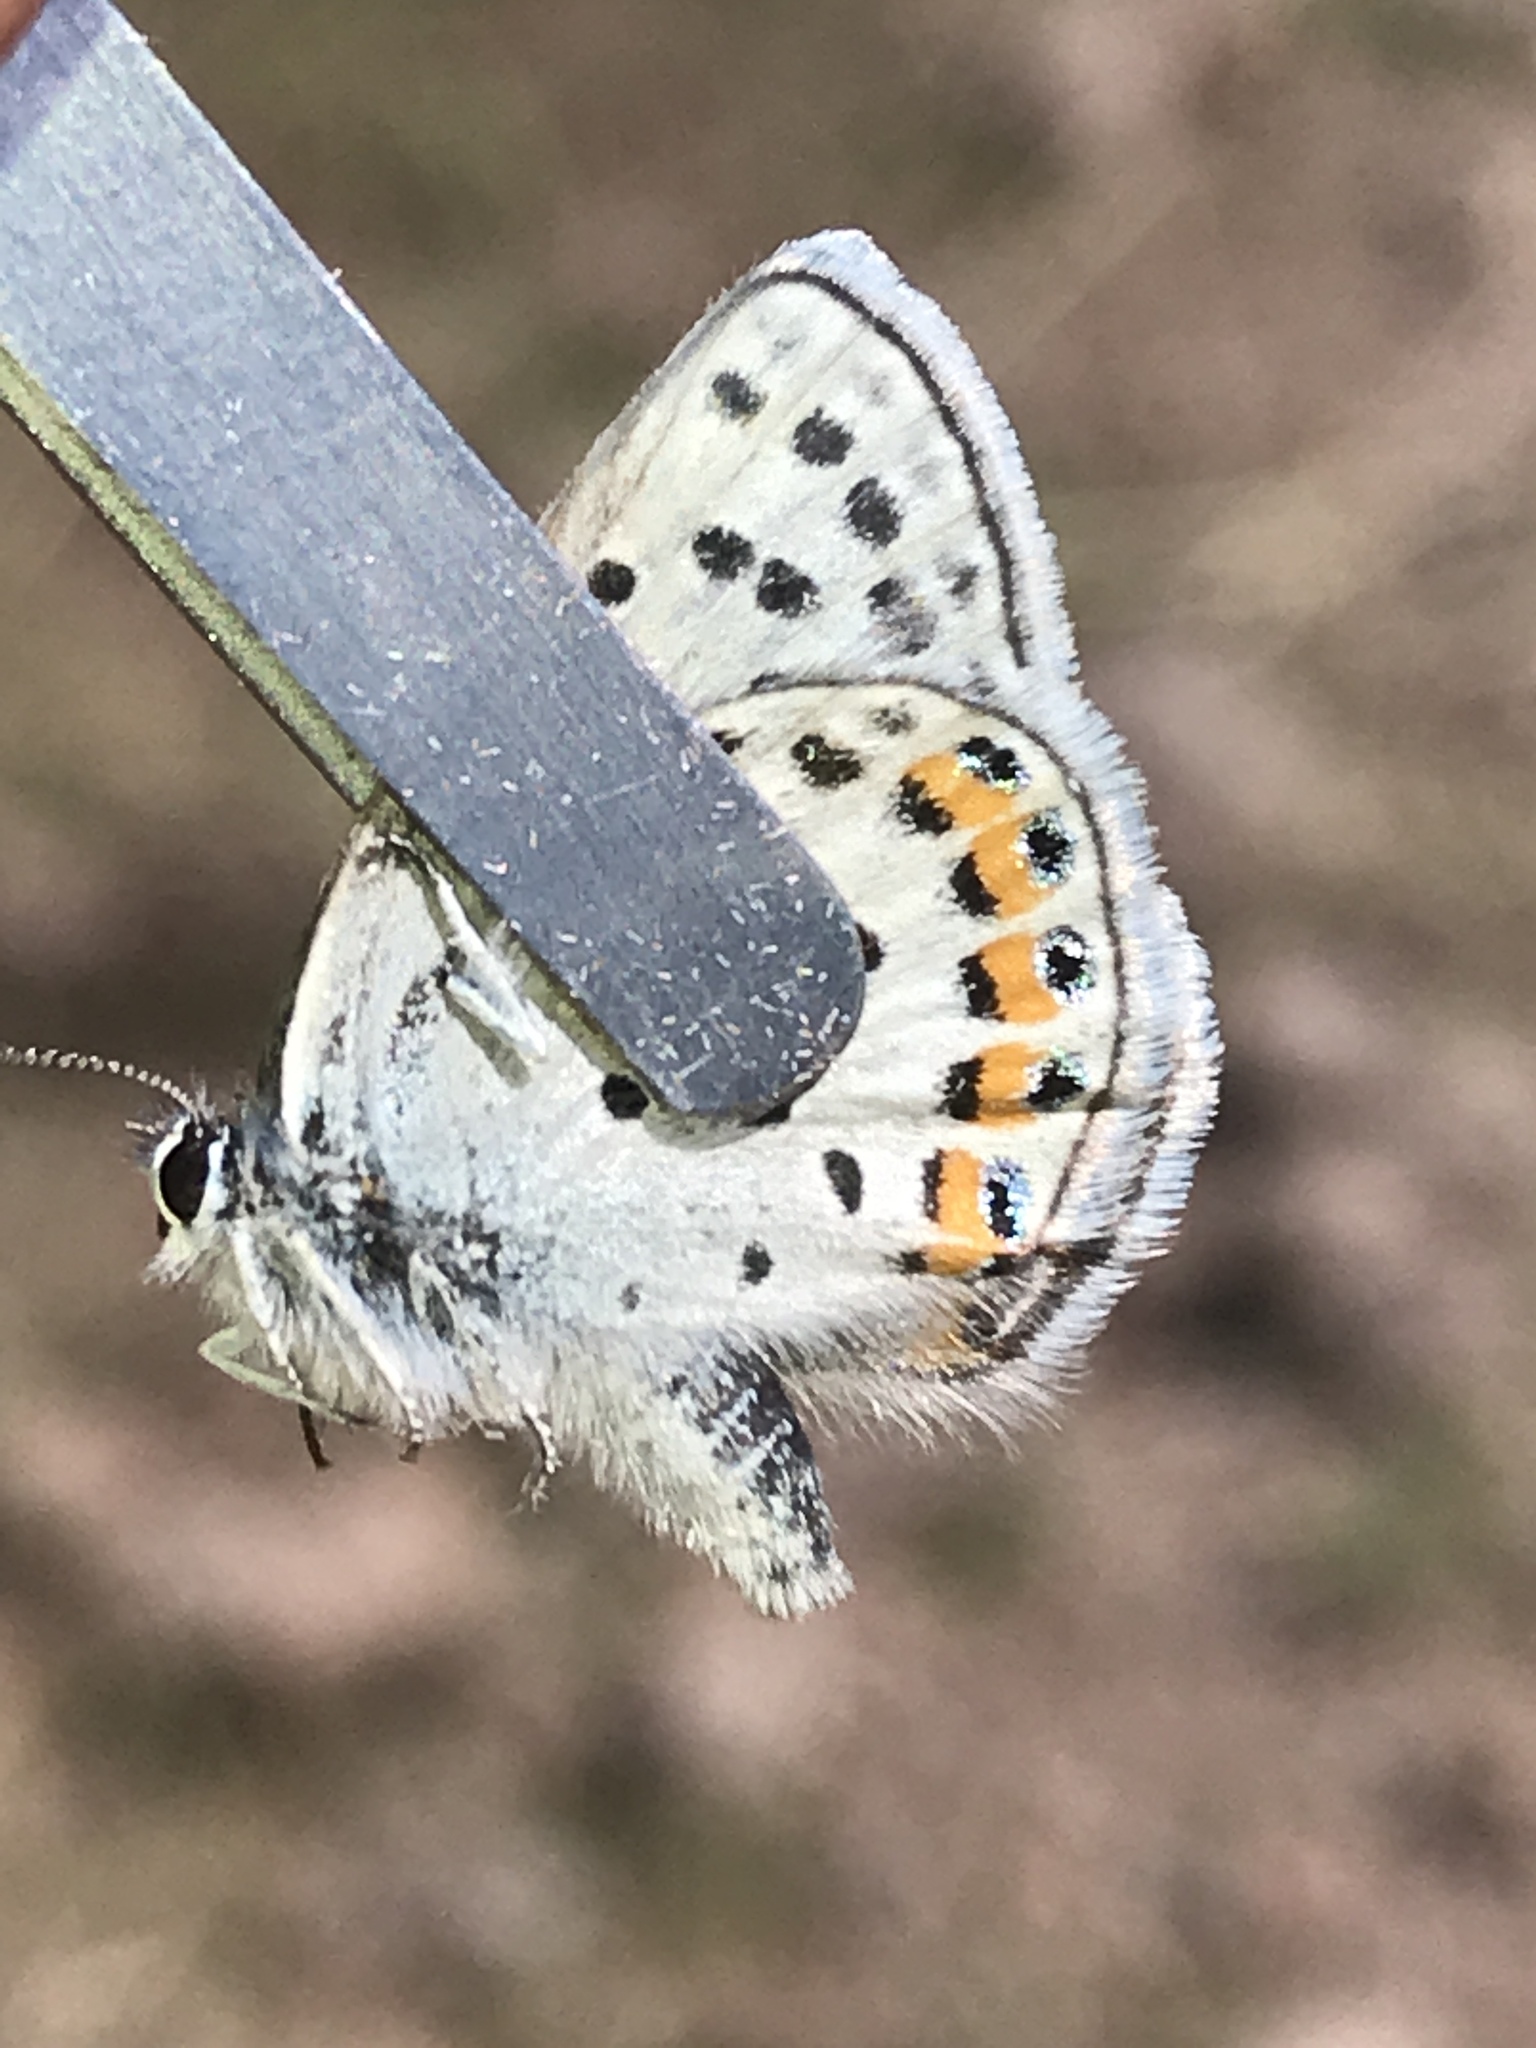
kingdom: Animalia
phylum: Arthropoda
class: Insecta
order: Lepidoptera
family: Lycaenidae
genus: Icaricia
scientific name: Icaricia lupini
